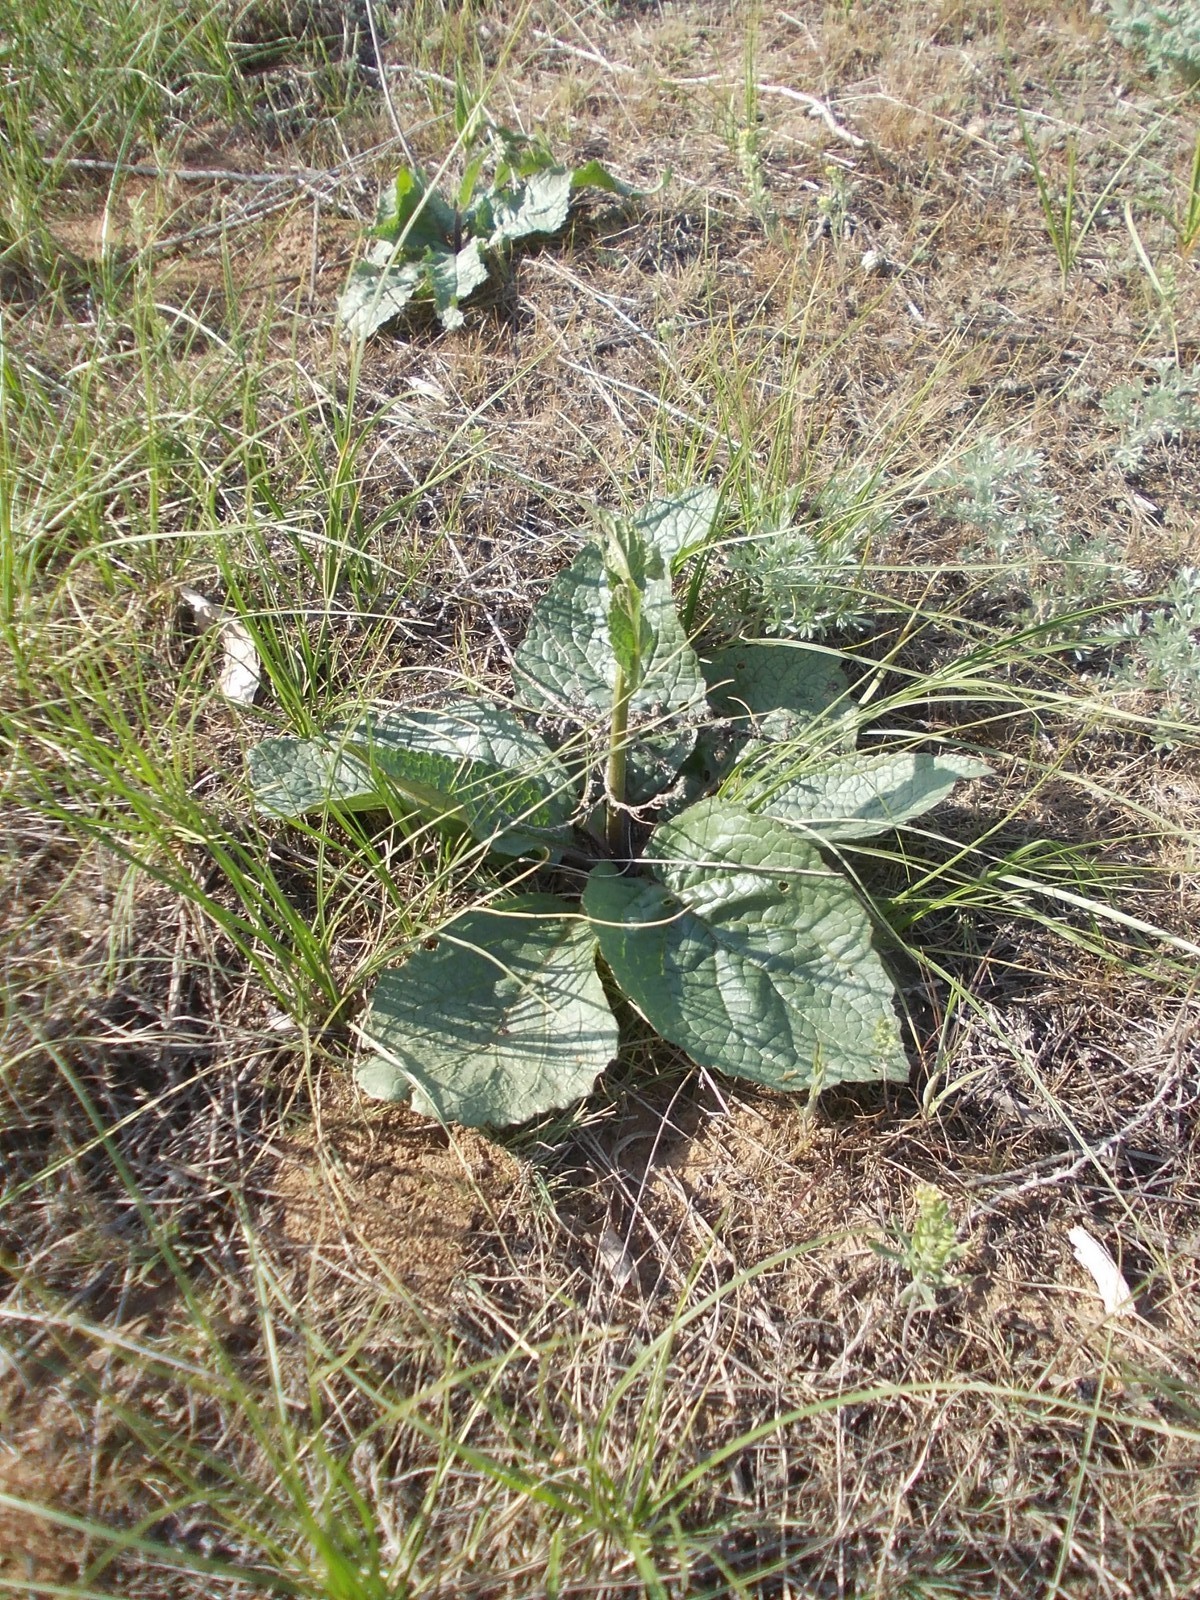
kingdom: Plantae
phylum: Tracheophyta
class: Magnoliopsida
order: Lamiales
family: Scrophulariaceae
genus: Verbascum
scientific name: Verbascum phoeniceum
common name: Purple mullein
